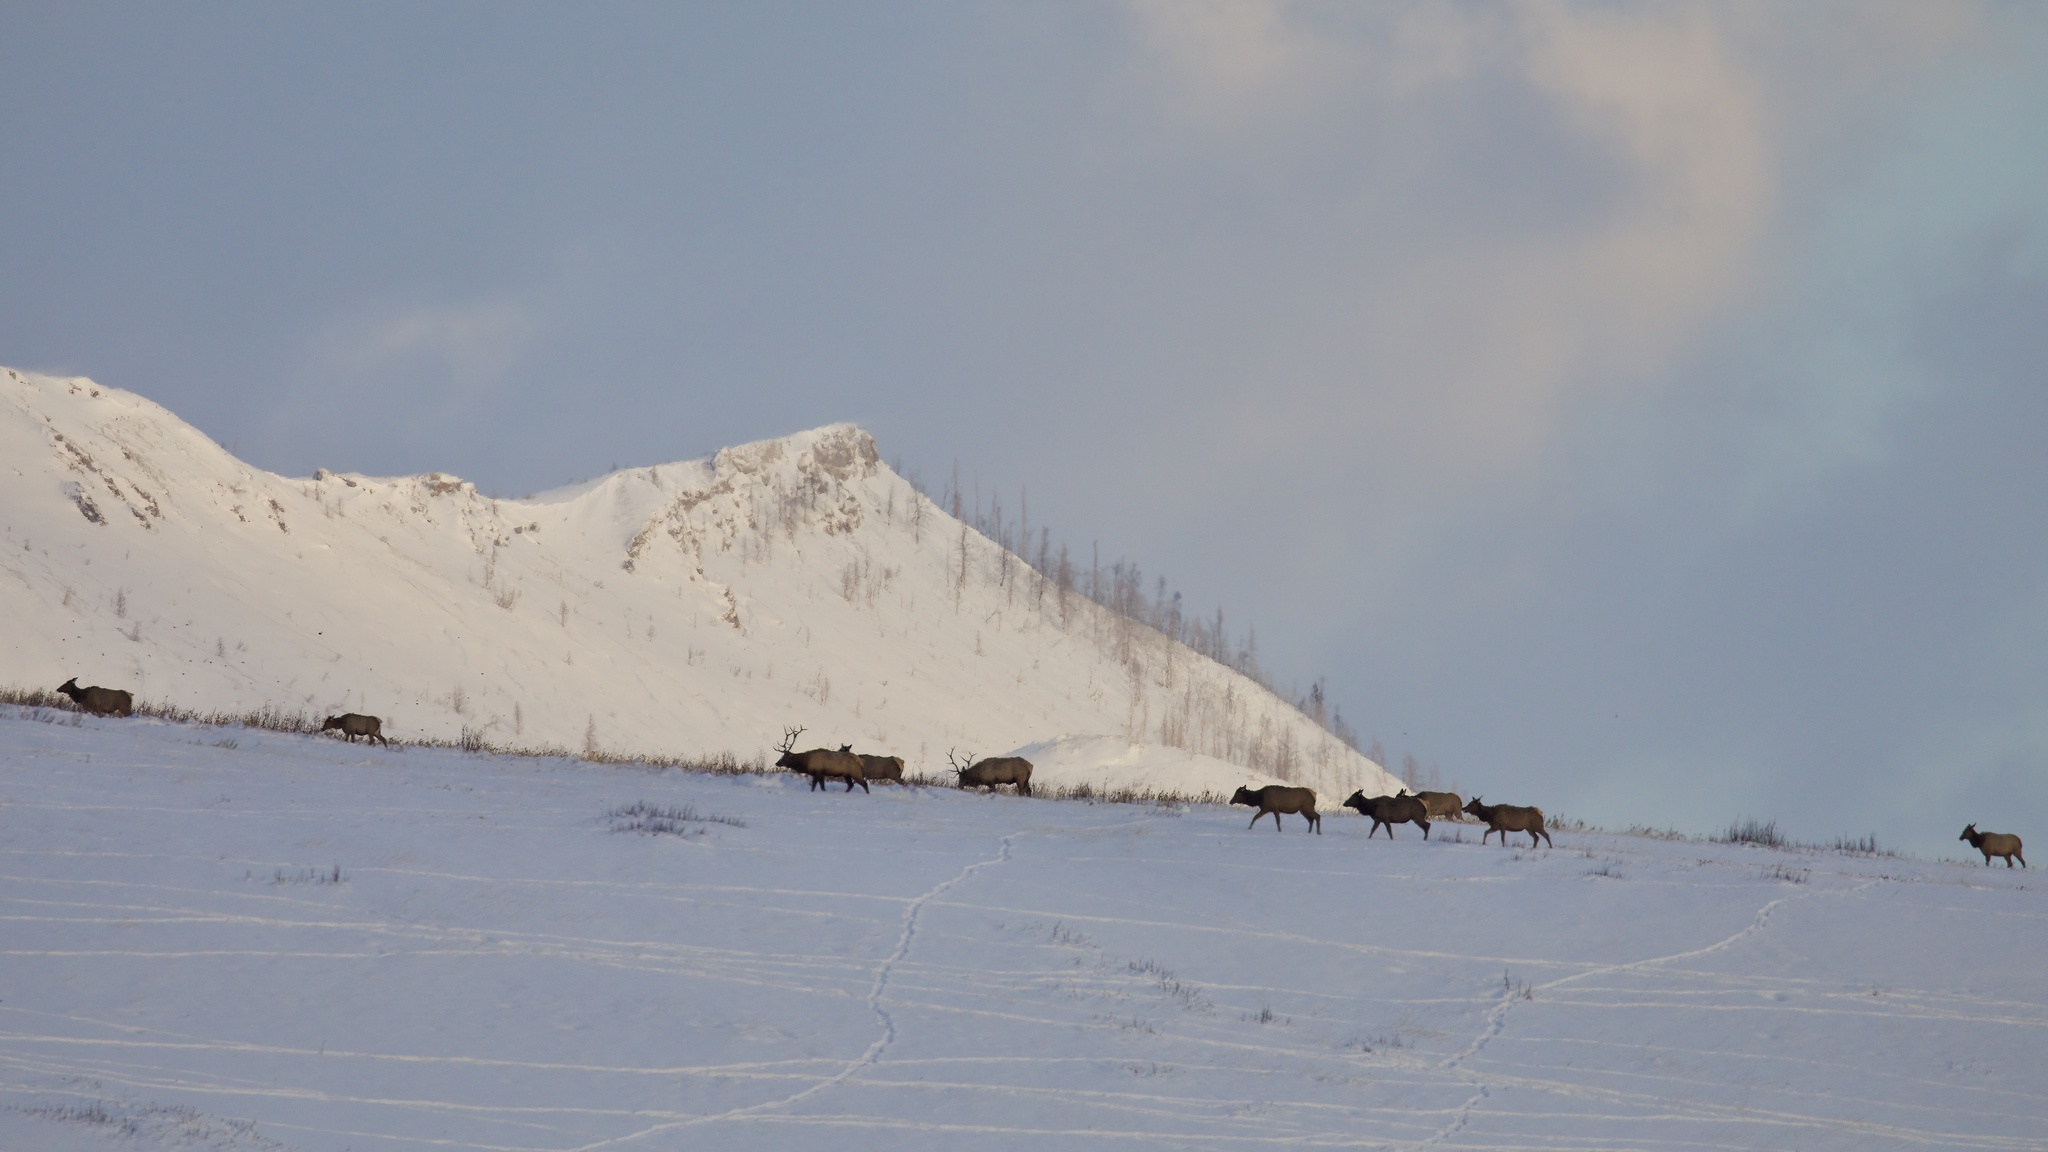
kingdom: Animalia
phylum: Chordata
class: Mammalia
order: Artiodactyla
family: Cervidae
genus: Cervus
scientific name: Cervus elaphus
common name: Red deer
